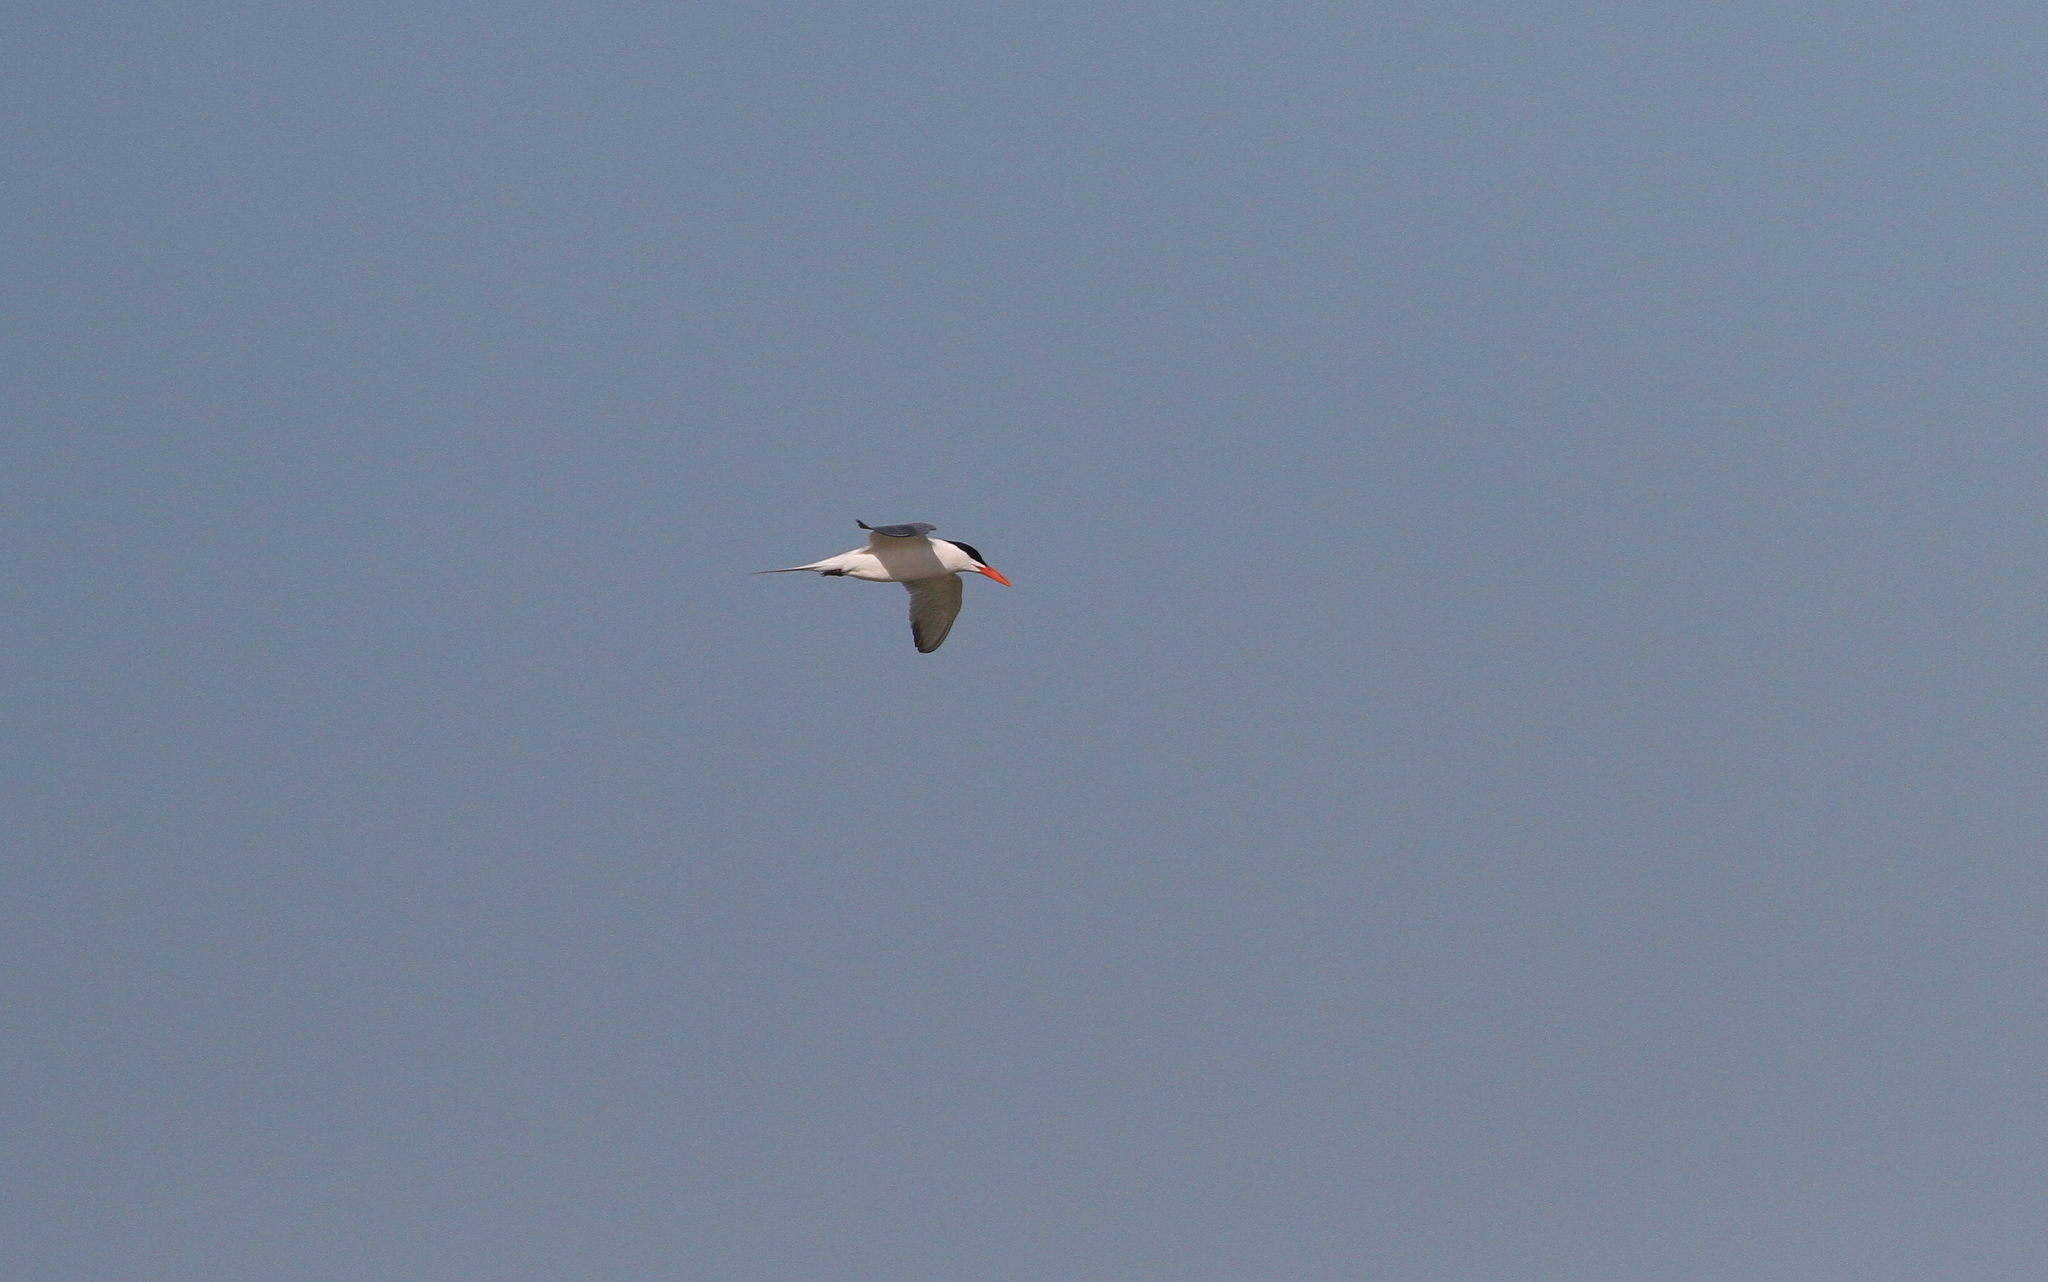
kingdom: Animalia
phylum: Chordata
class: Aves
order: Charadriiformes
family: Laridae
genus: Thalasseus
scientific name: Thalasseus maximus
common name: Royal tern
